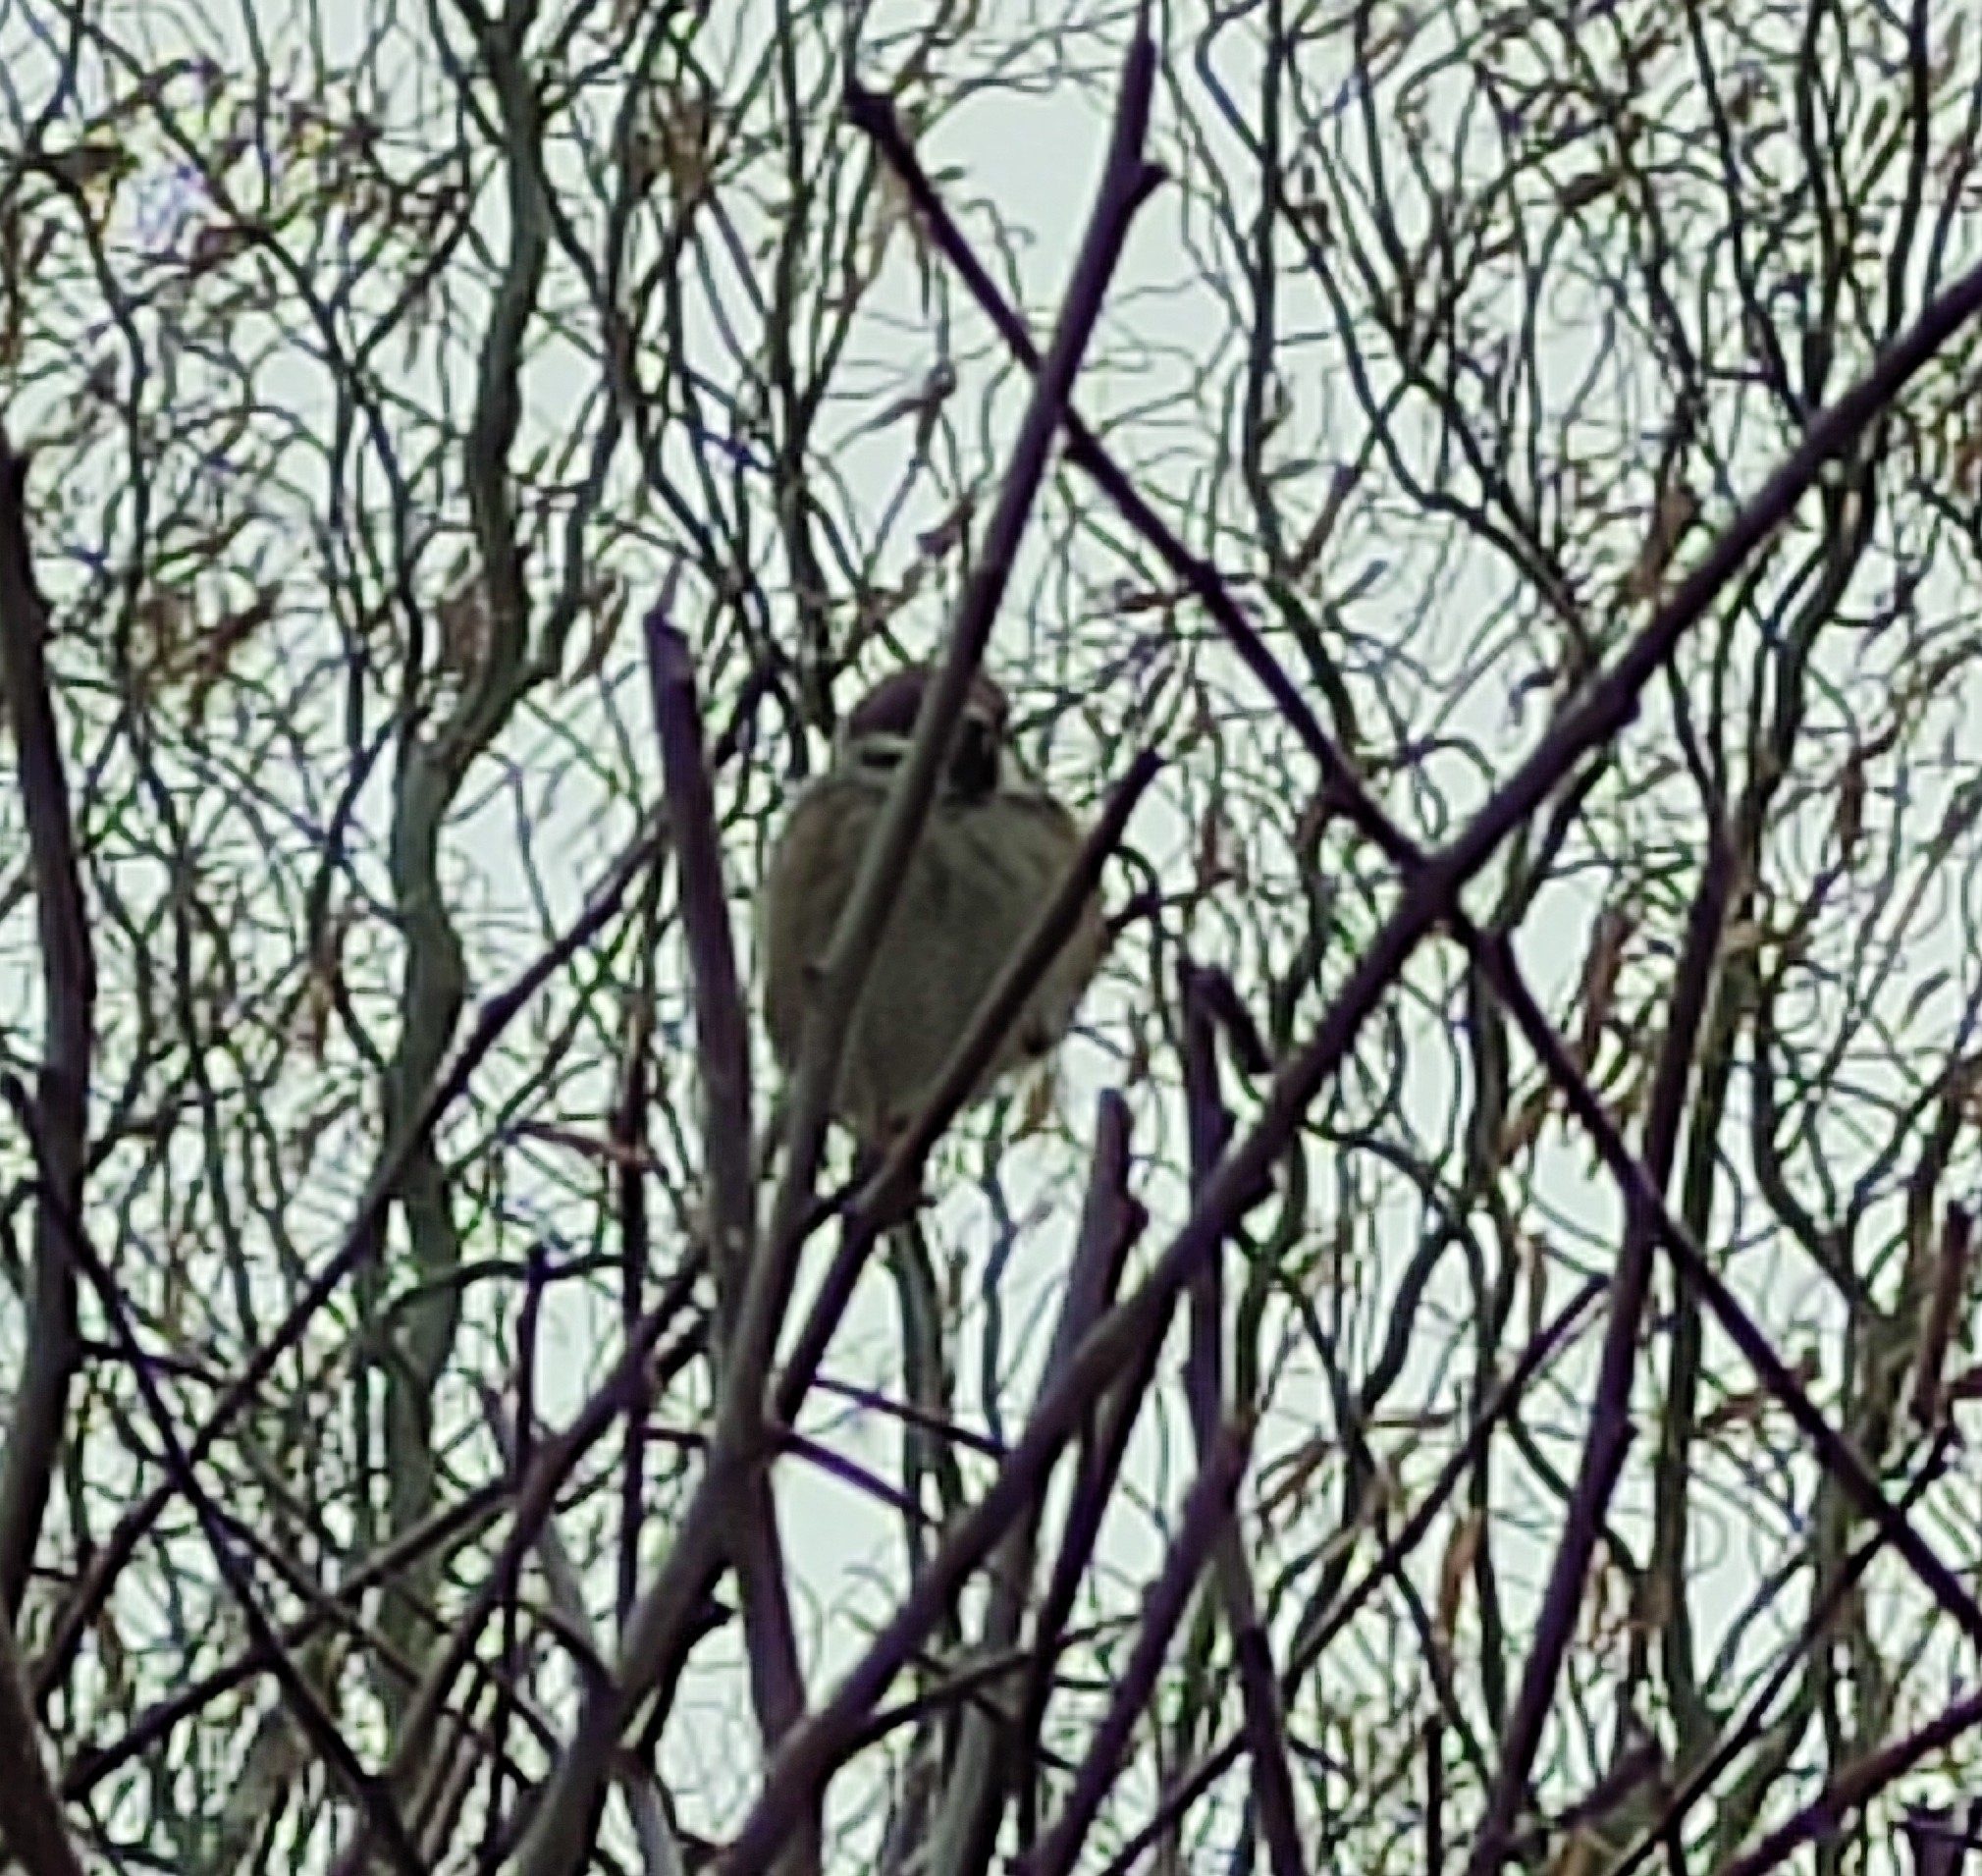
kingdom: Animalia
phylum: Chordata
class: Aves
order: Passeriformes
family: Passeridae
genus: Passer
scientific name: Passer montanus
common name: Eurasian tree sparrow
